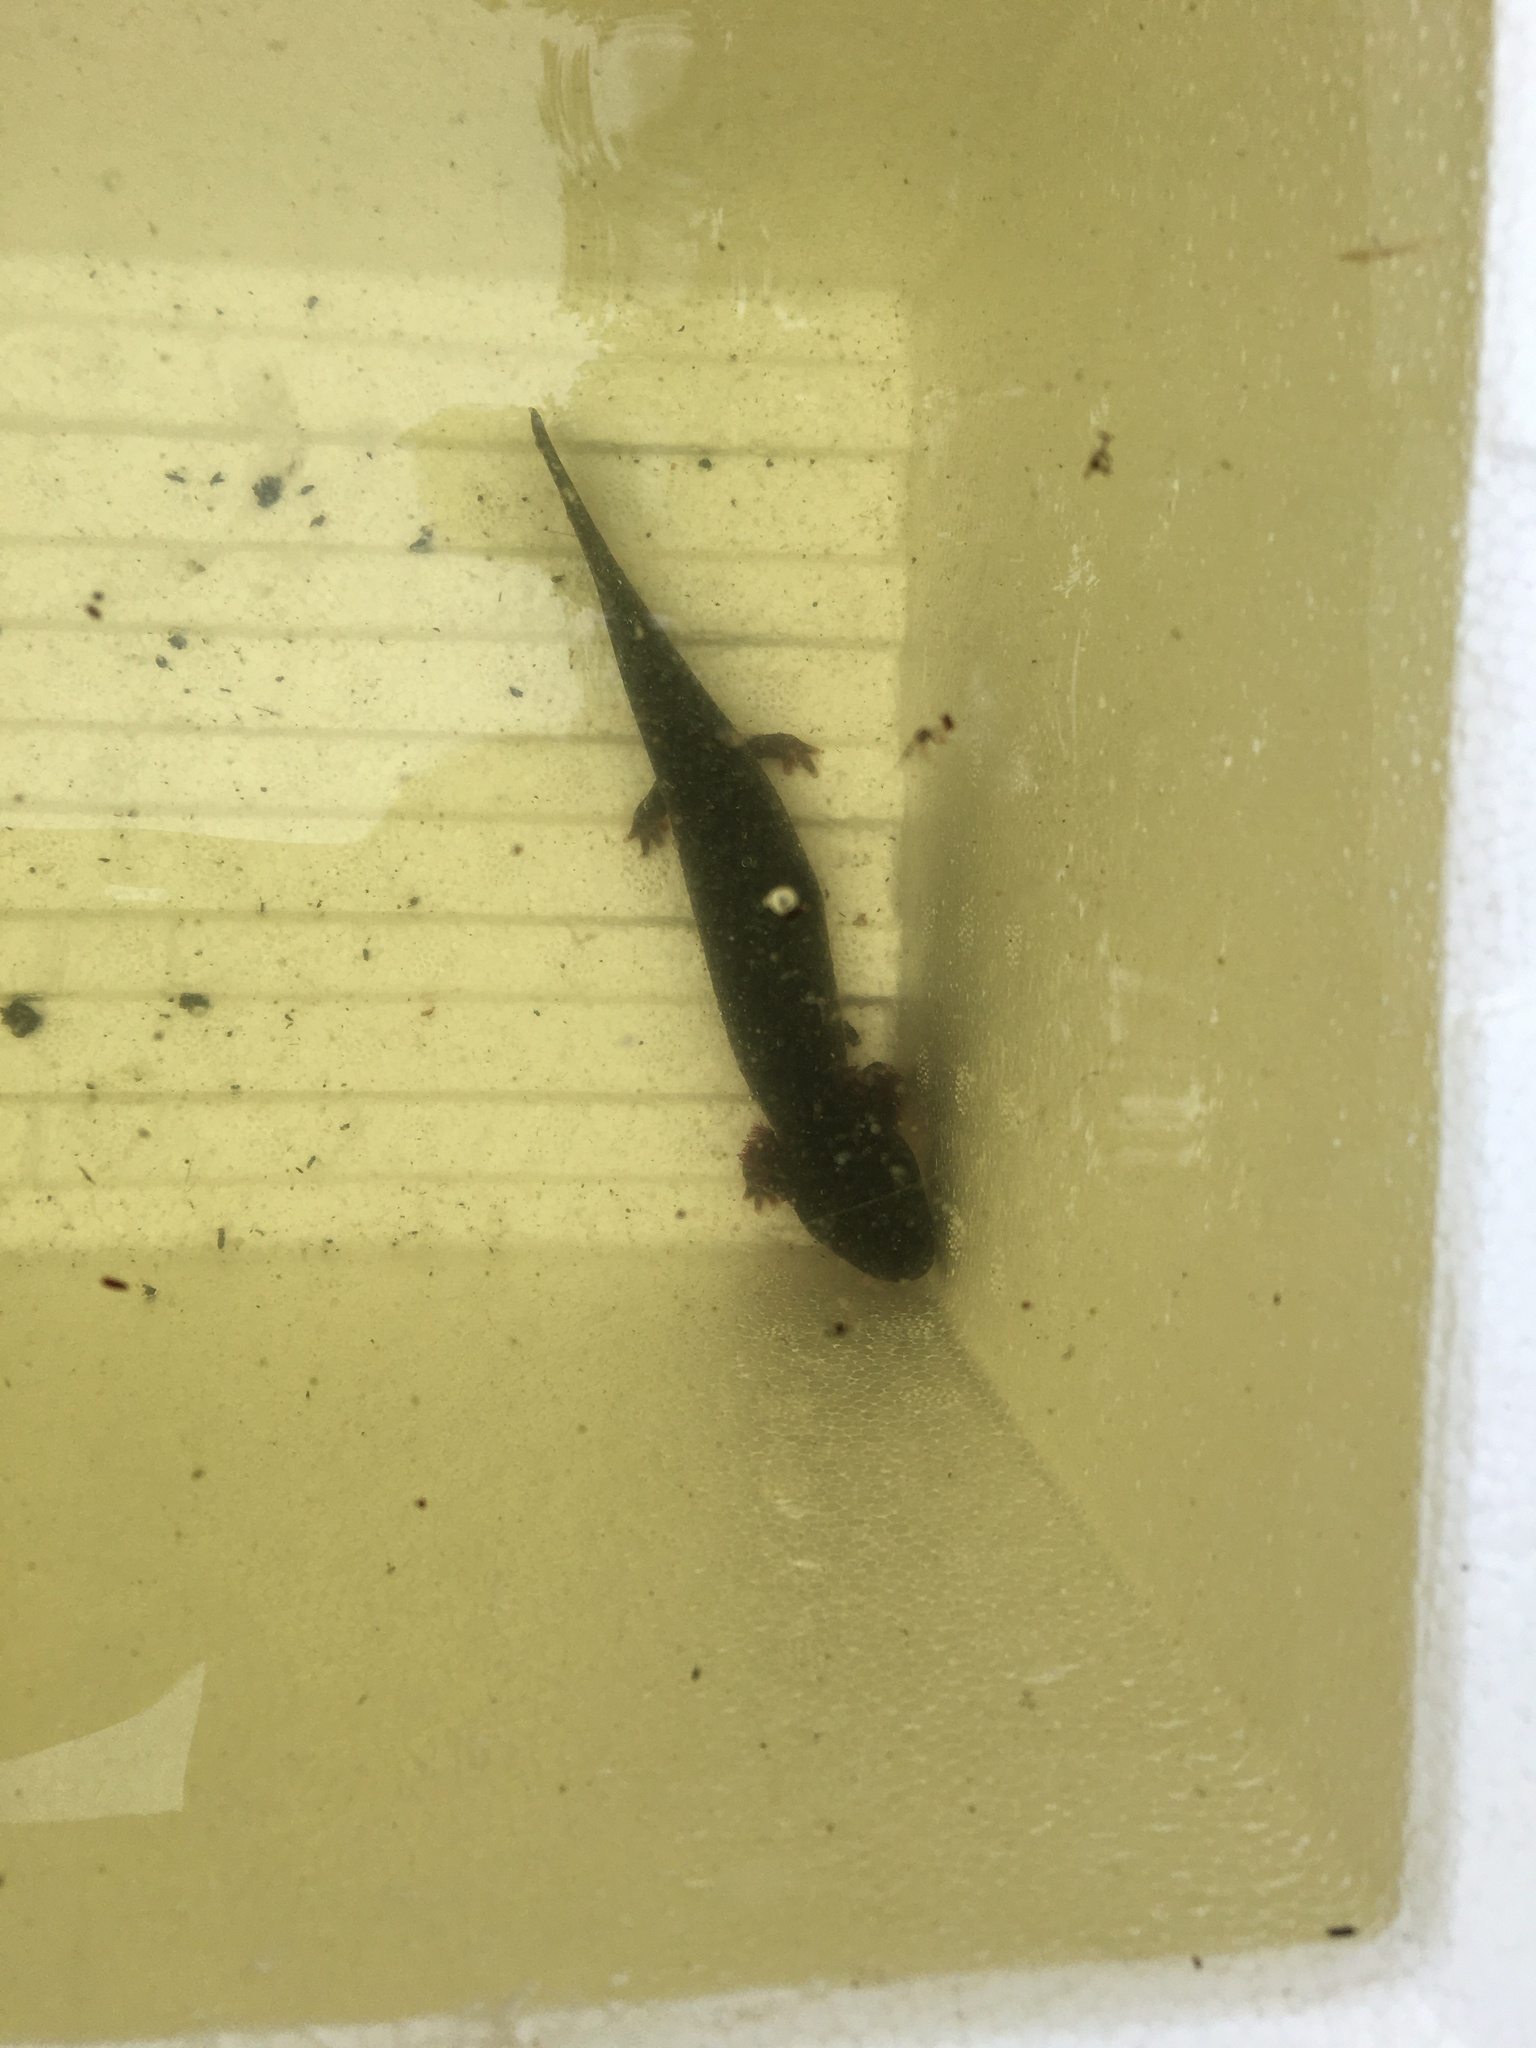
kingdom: Animalia
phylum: Chordata
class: Amphibia
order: Caudata
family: Proteidae
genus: Necturus
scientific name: Necturus maculosus
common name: Mudpuppy
